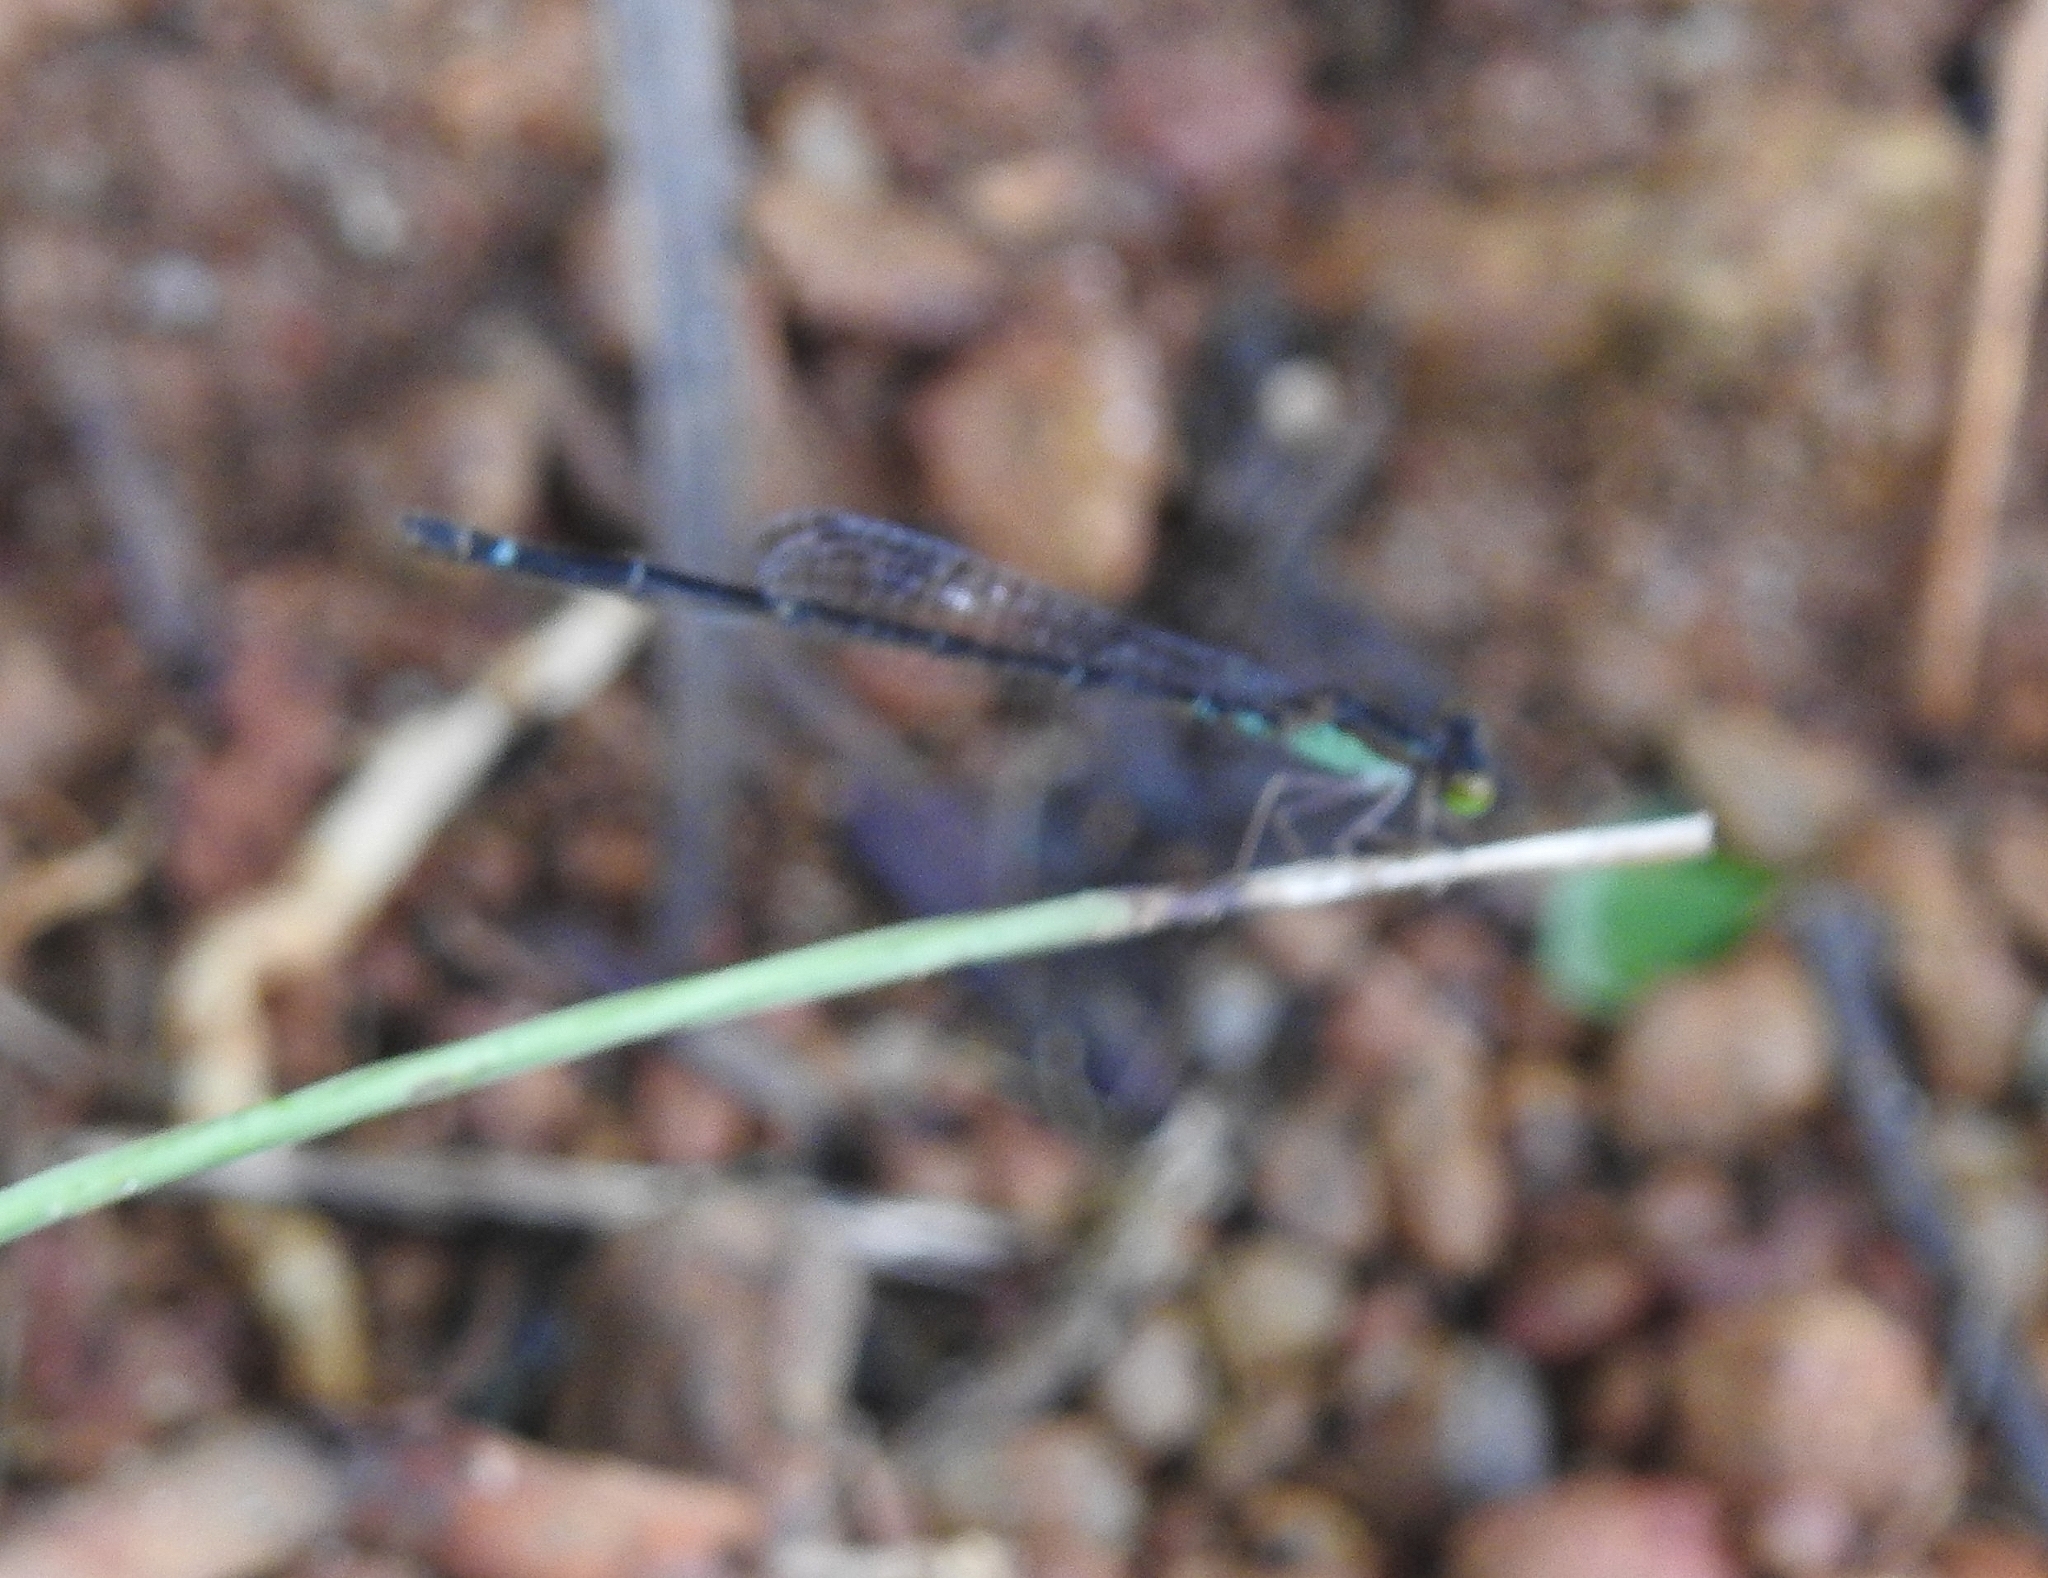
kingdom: Animalia
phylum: Arthropoda
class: Insecta
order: Odonata
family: Coenagrionidae
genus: Mortonagrion
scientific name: Mortonagrion varralli
